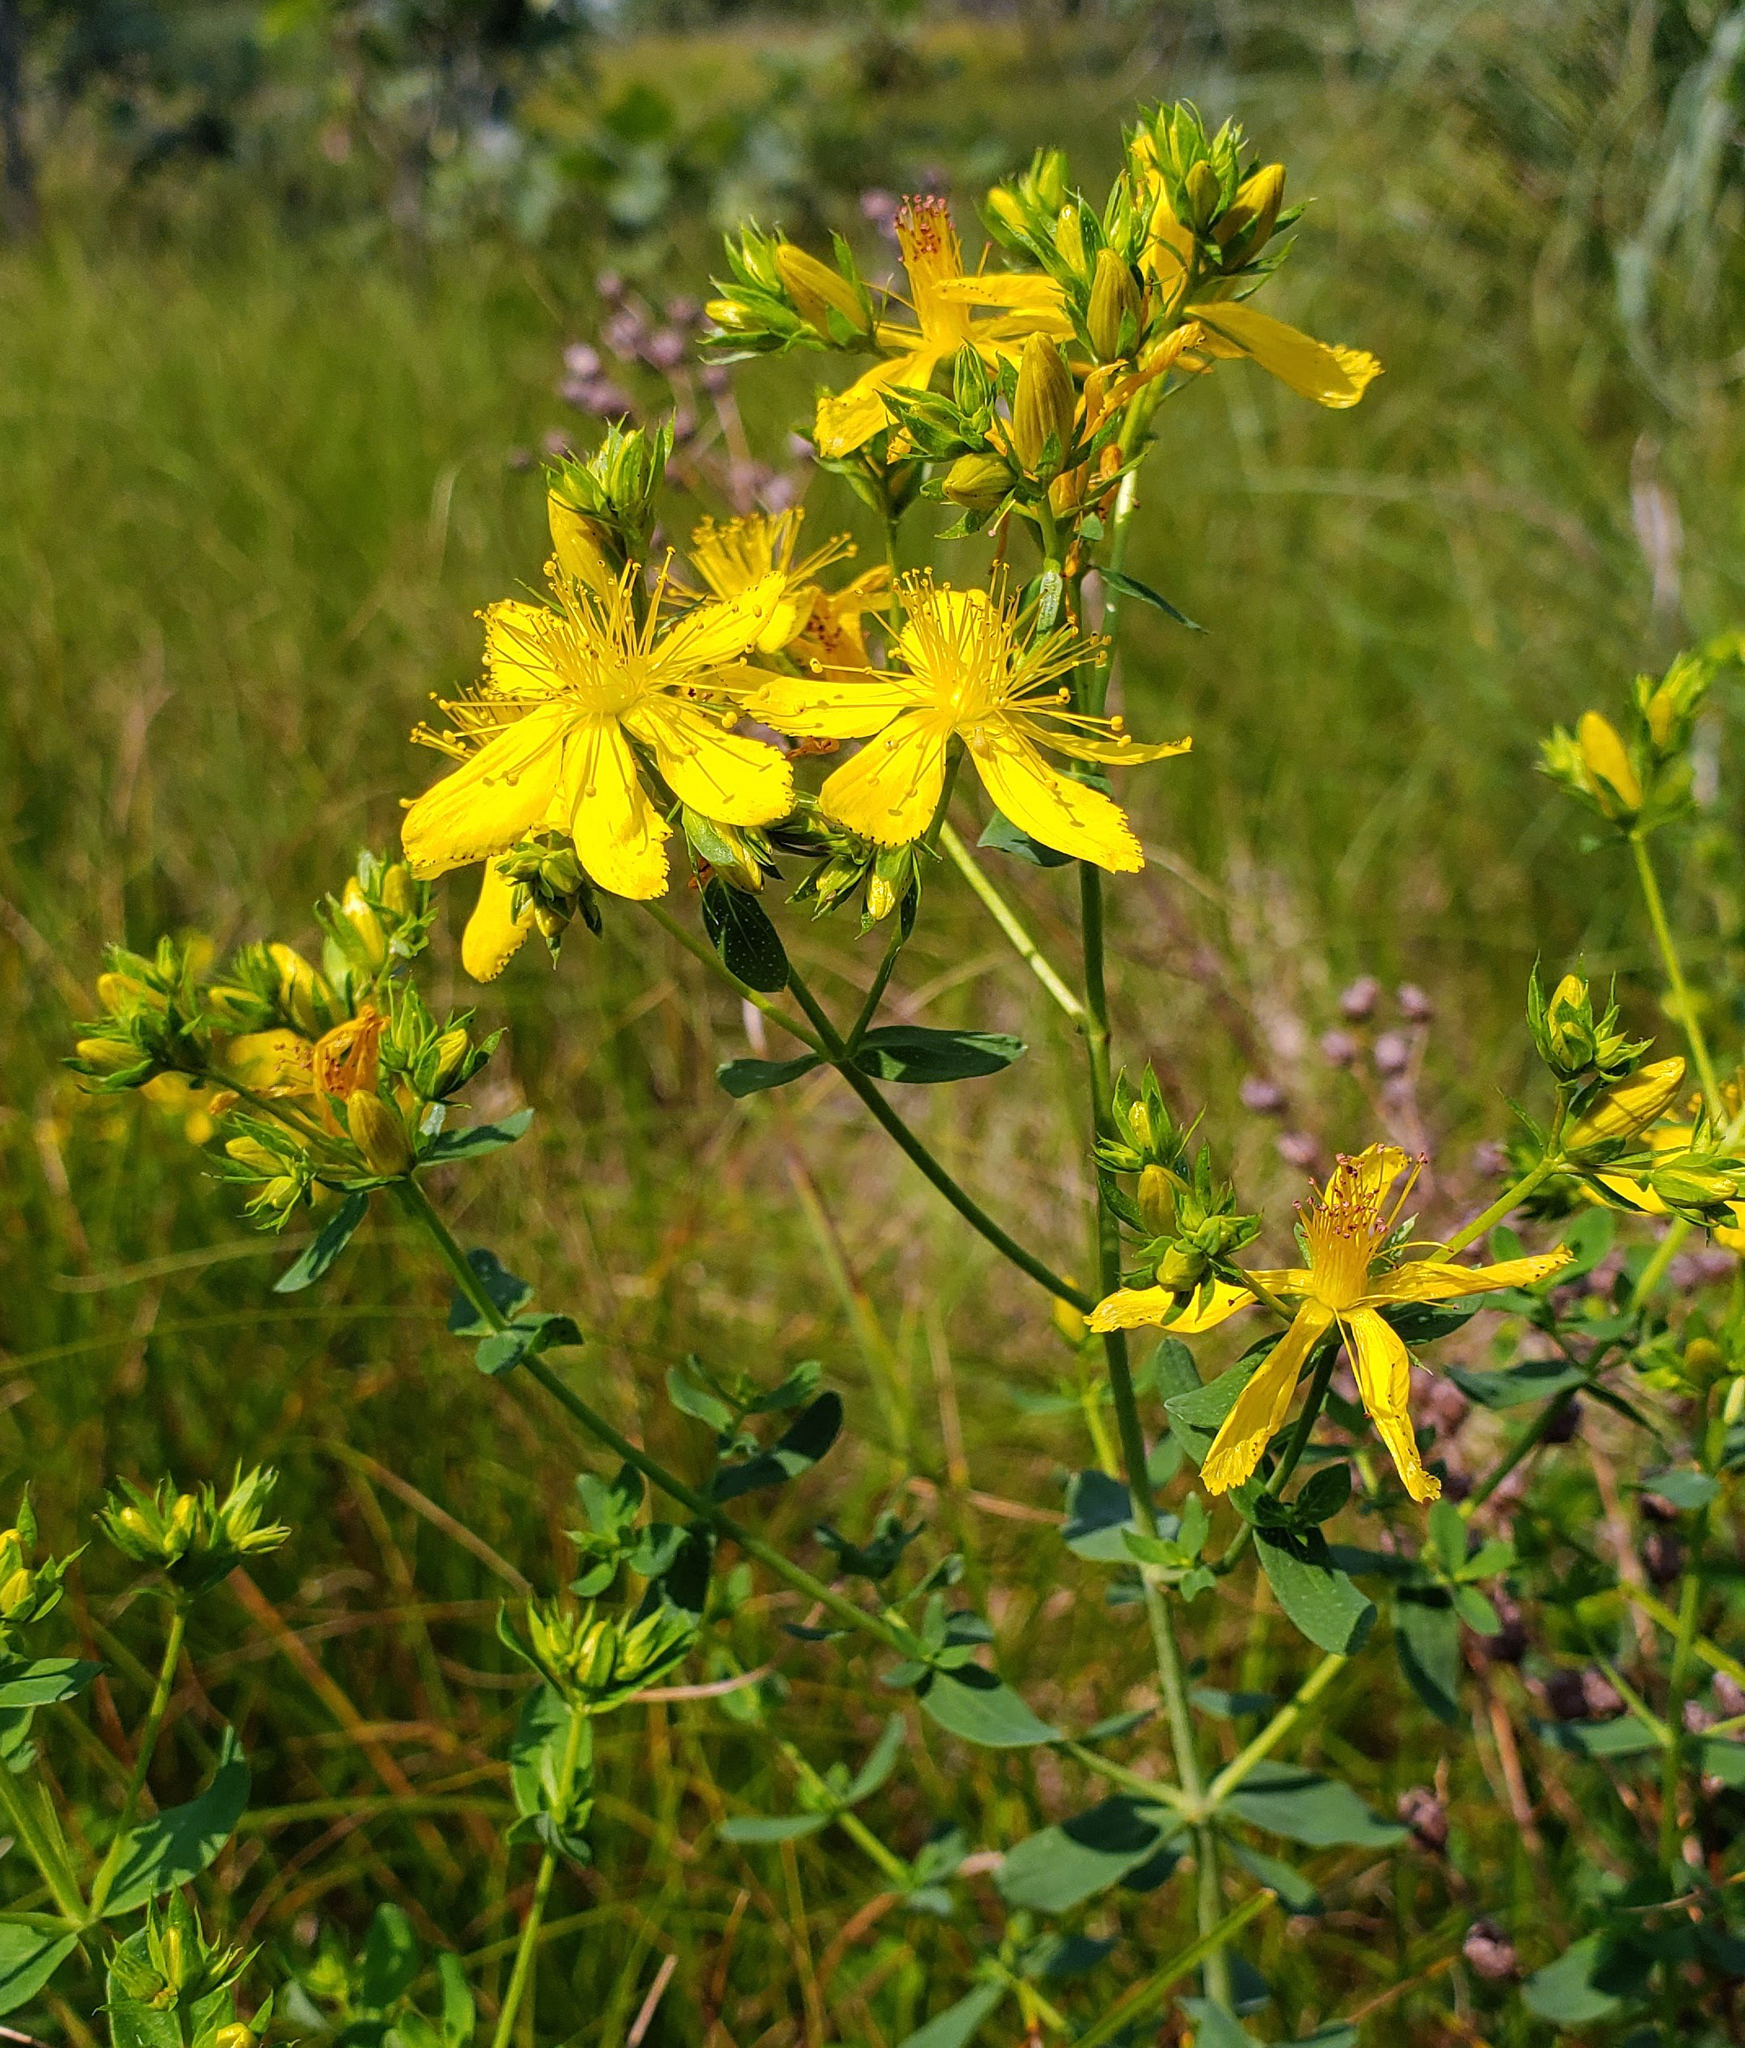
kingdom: Plantae
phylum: Tracheophyta
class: Magnoliopsida
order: Malpighiales
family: Hypericaceae
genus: Hypericum
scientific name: Hypericum perforatum
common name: Common st. johnswort
